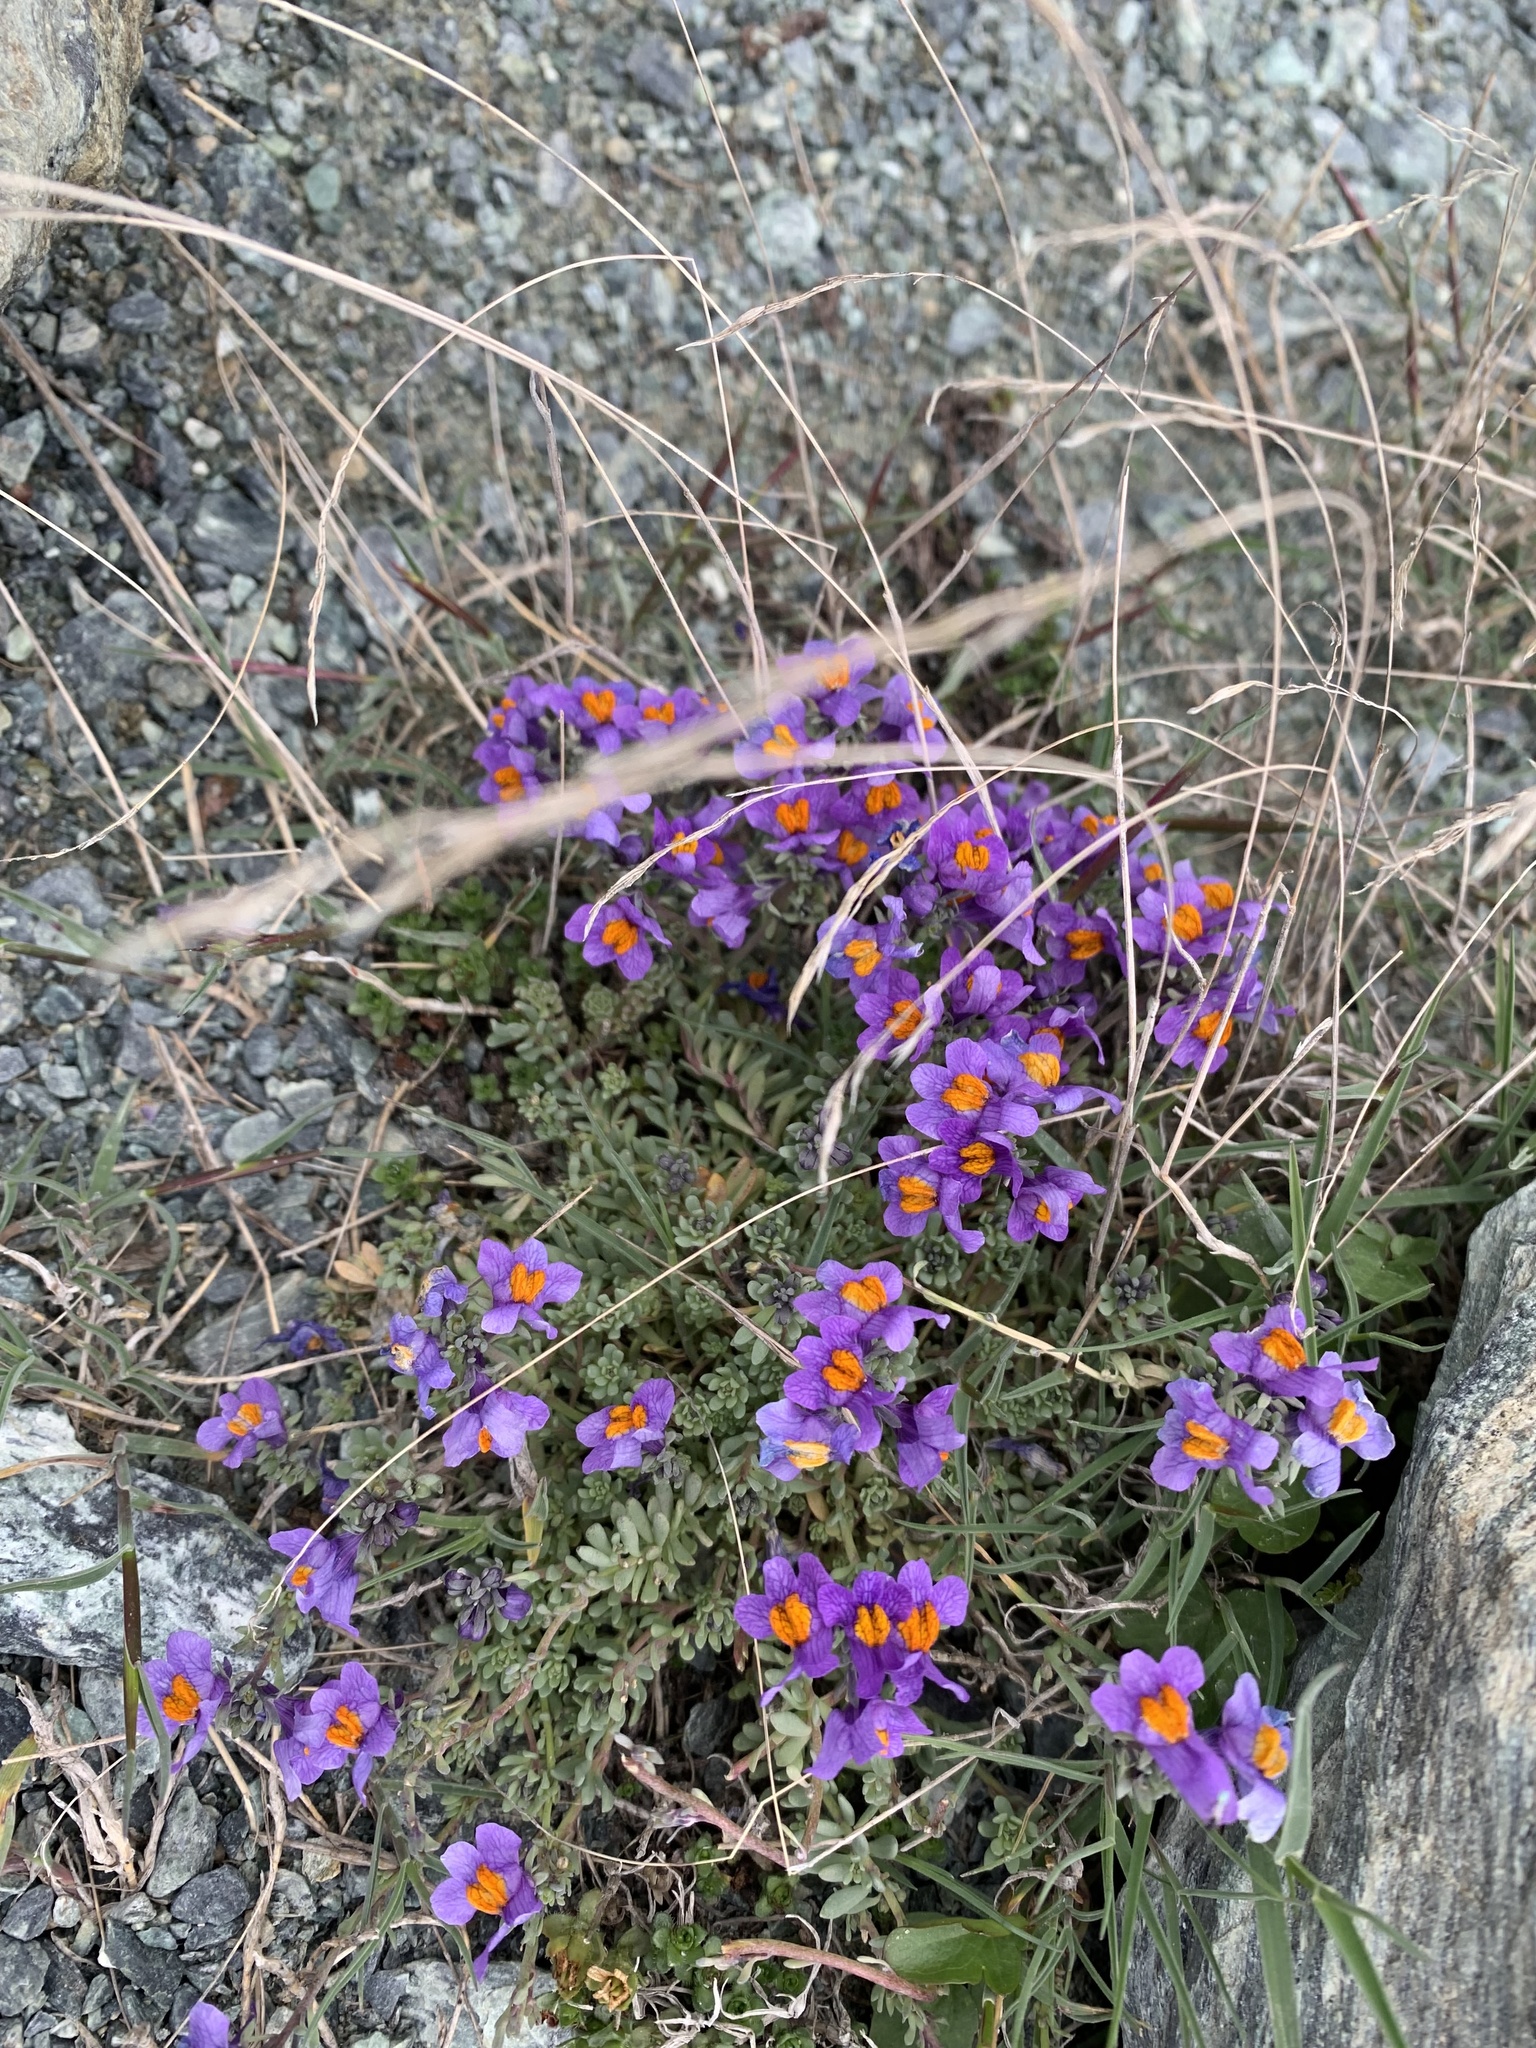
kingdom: Plantae
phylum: Tracheophyta
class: Magnoliopsida
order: Lamiales
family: Plantaginaceae
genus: Linaria
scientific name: Linaria alpina
